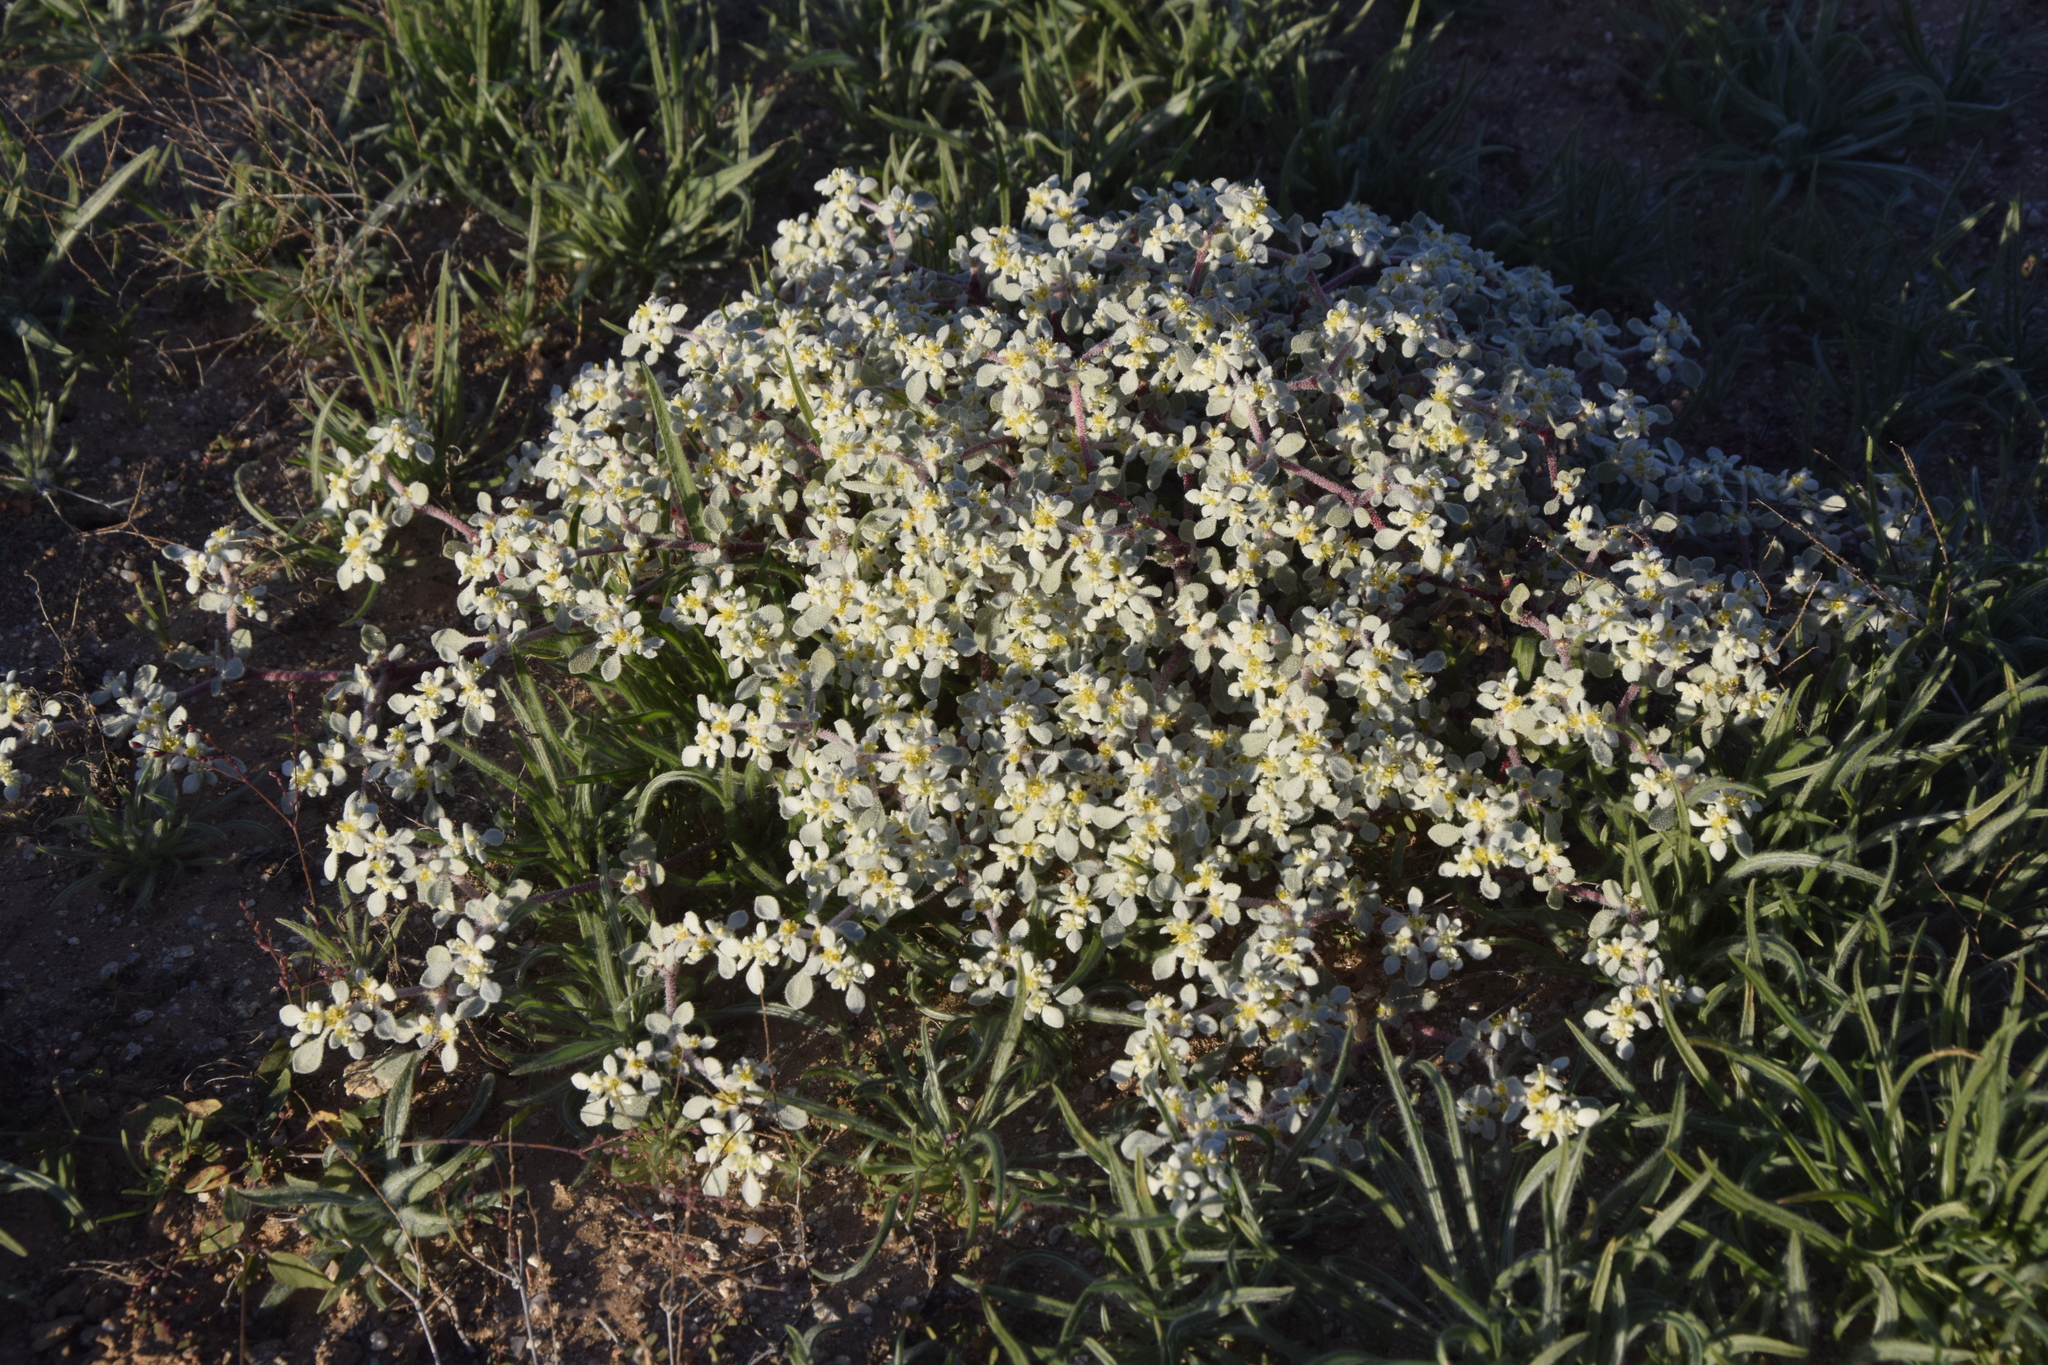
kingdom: Plantae
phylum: Tracheophyta
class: Magnoliopsida
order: Caryophyllales
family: Amaranthaceae
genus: Tidestromia
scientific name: Tidestromia lanuginosa
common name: Woolly tidestromia
